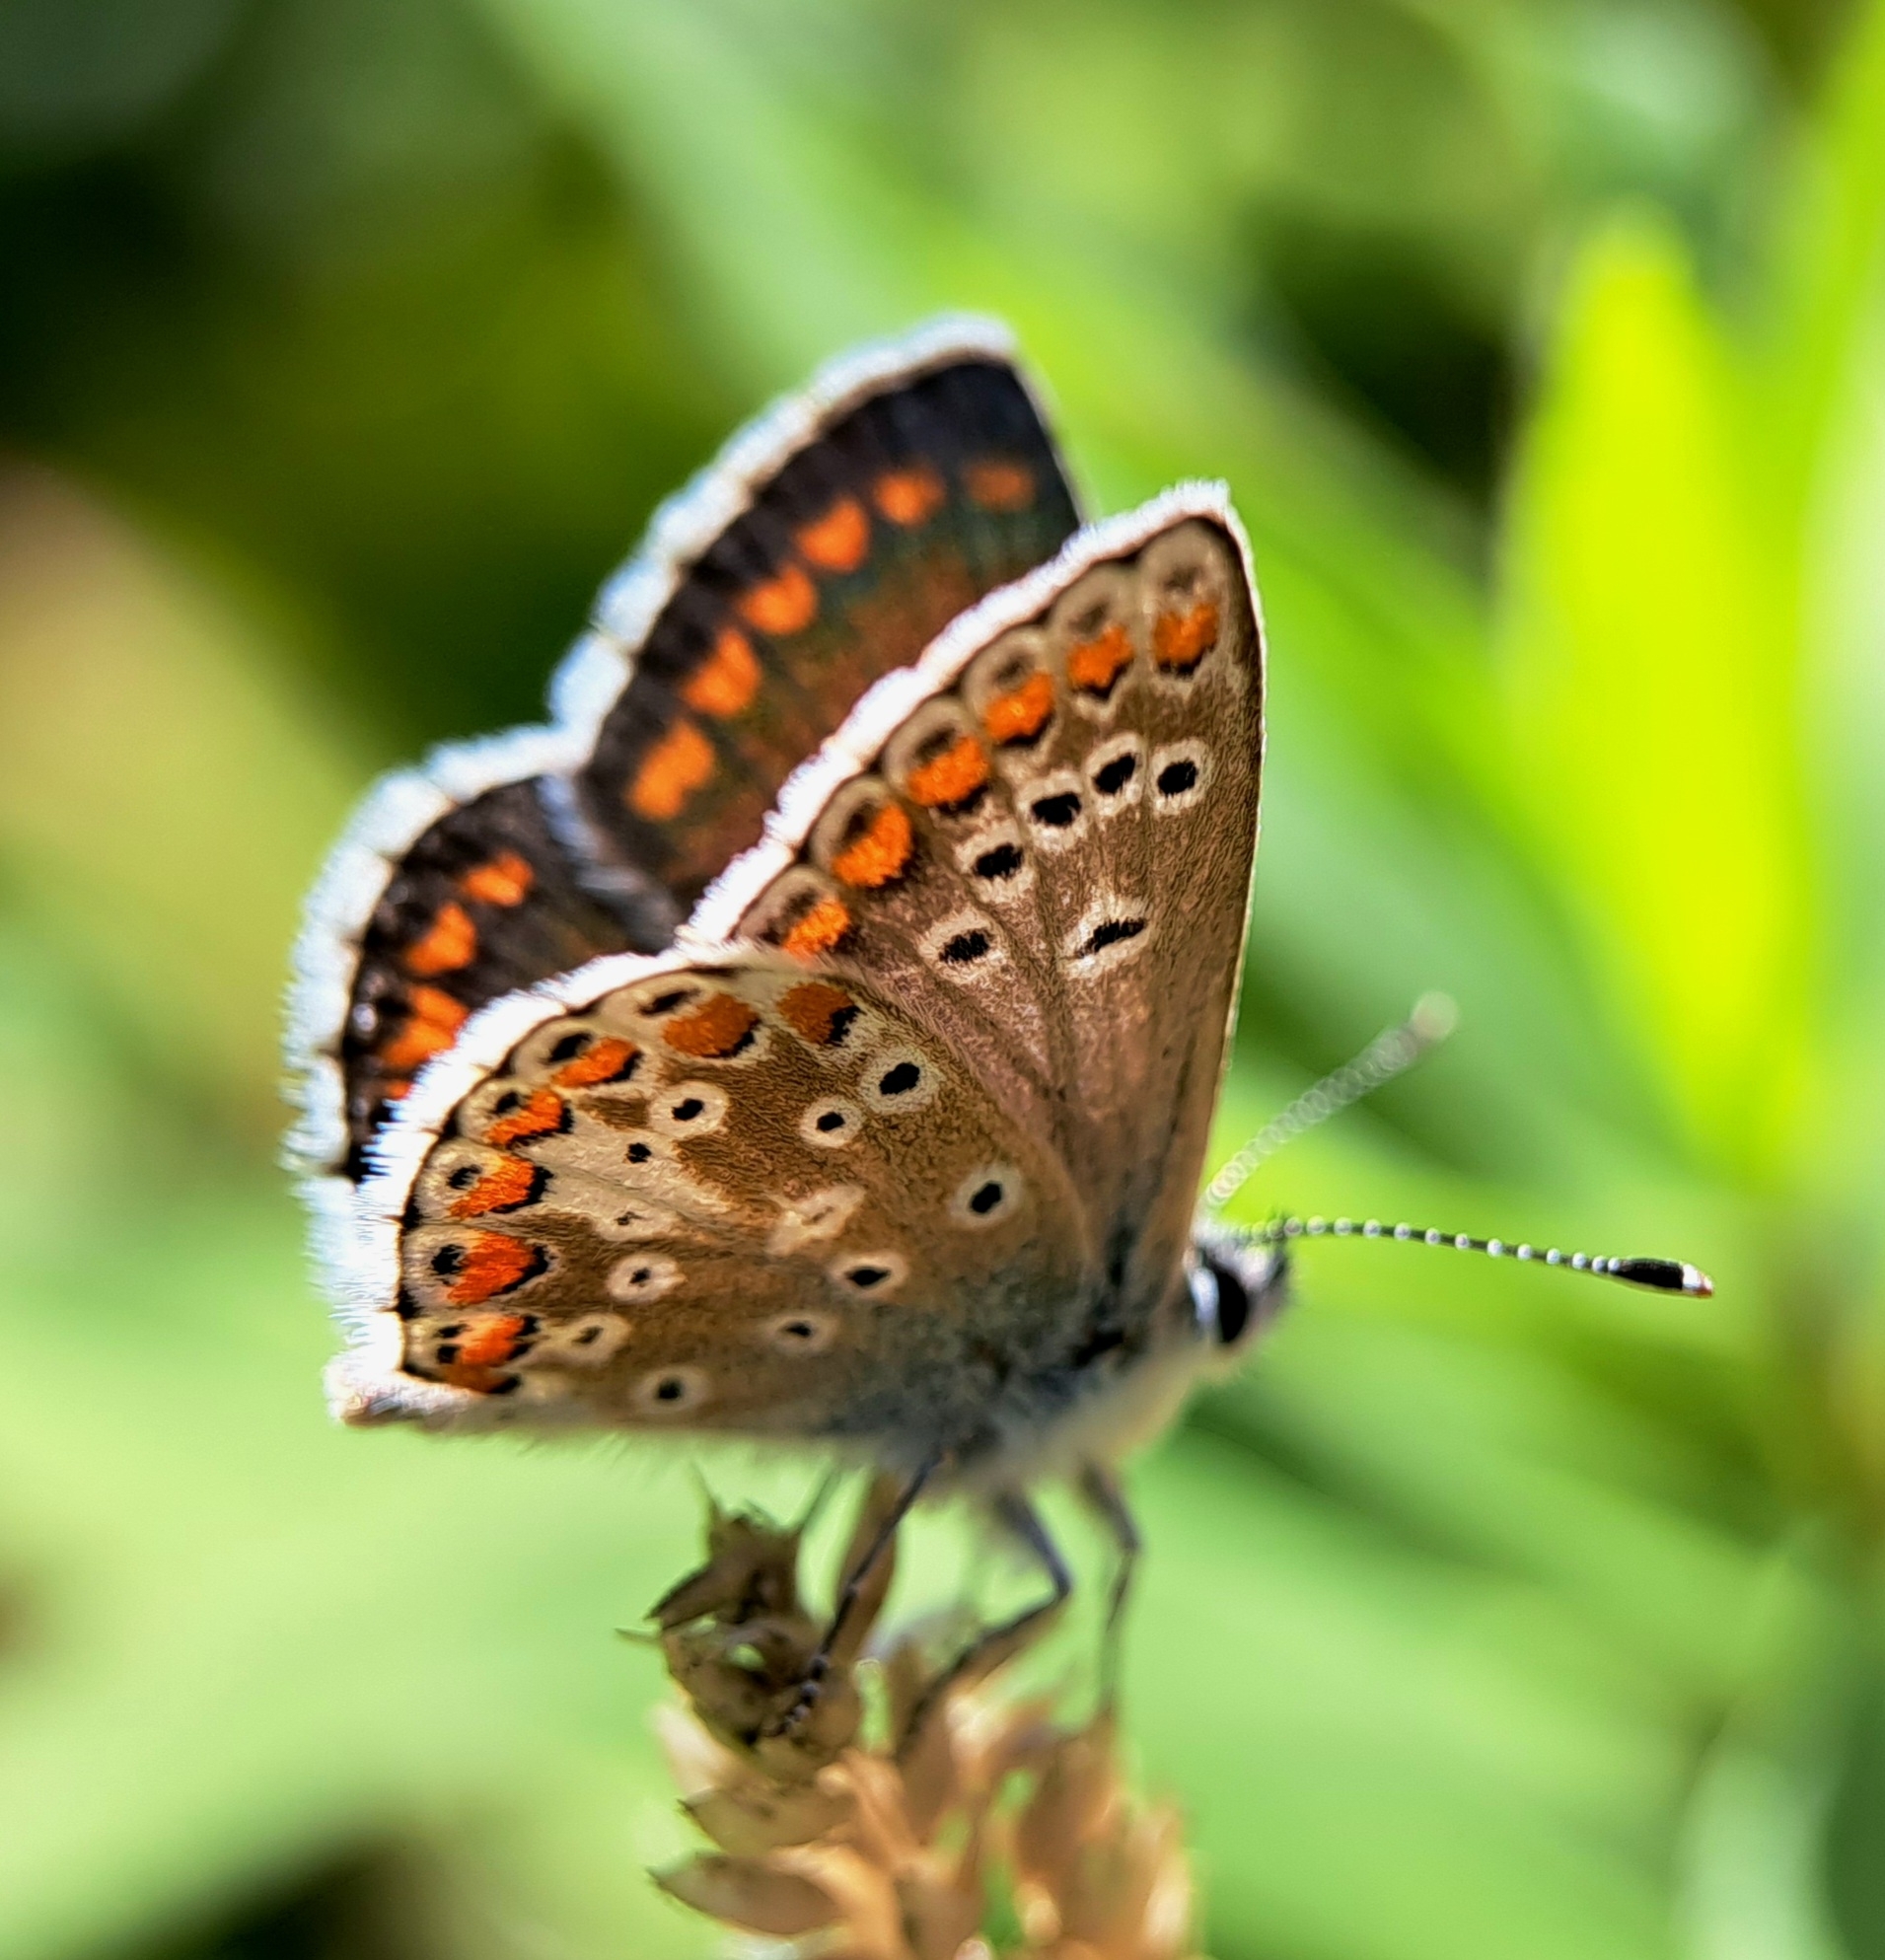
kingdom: Animalia
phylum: Arthropoda
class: Insecta
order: Lepidoptera
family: Lycaenidae
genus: Aricia
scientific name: Aricia agestis
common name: Brown argus
